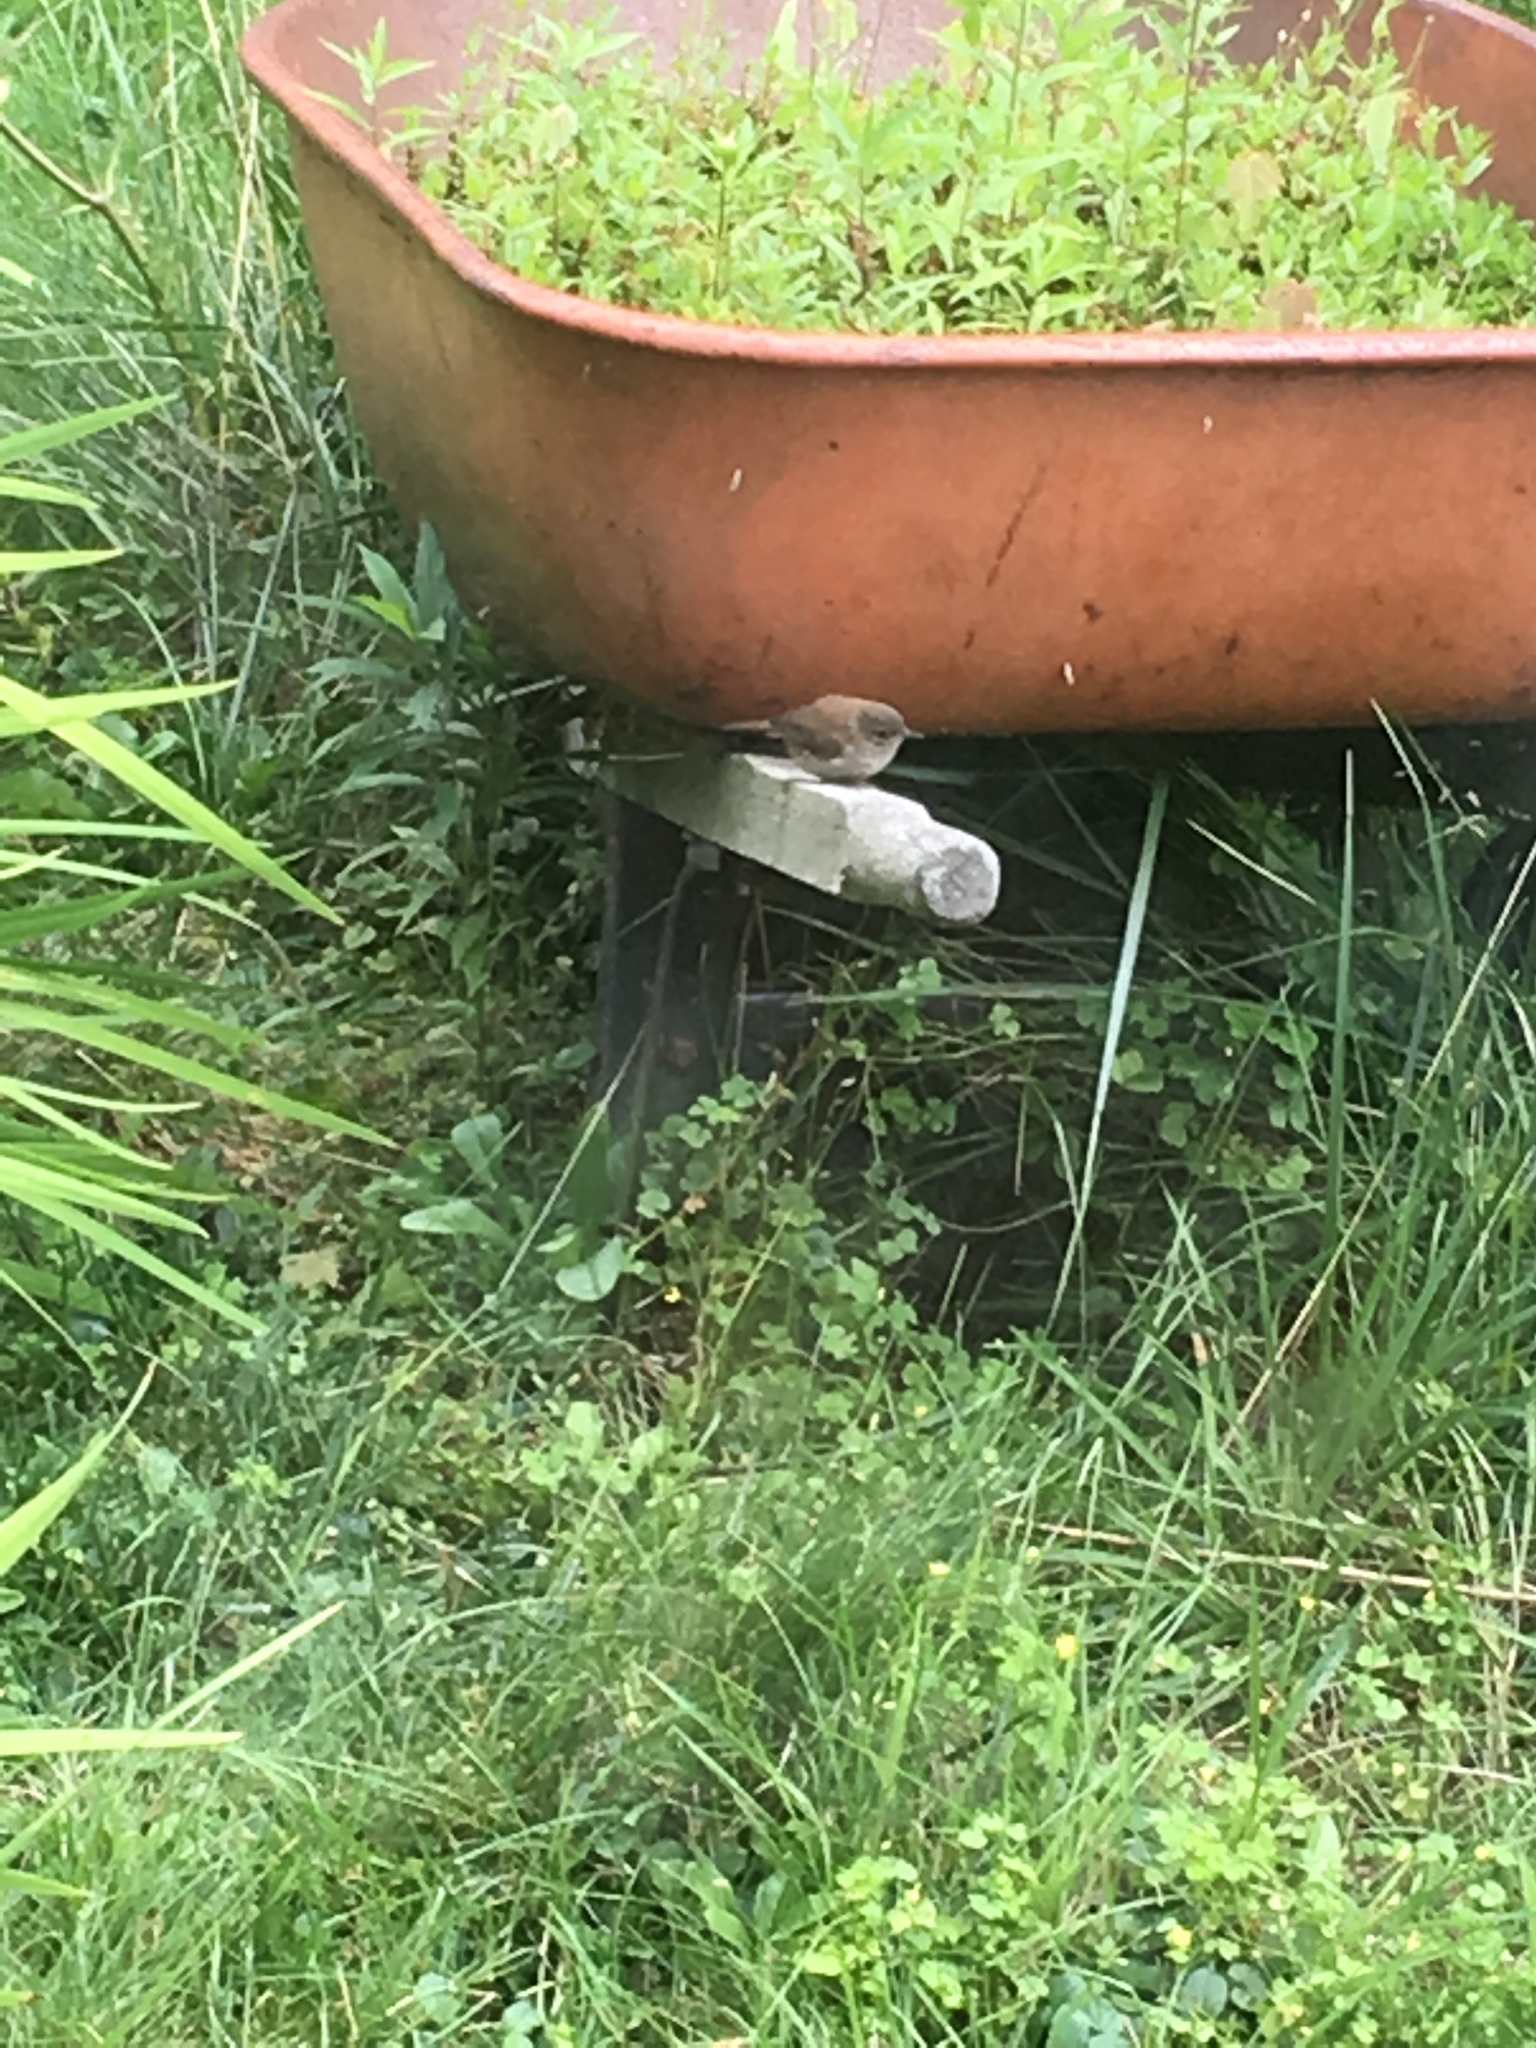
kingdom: Animalia
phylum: Chordata
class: Aves
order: Passeriformes
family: Troglodytidae
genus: Troglodytes
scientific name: Troglodytes aedon
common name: House wren
